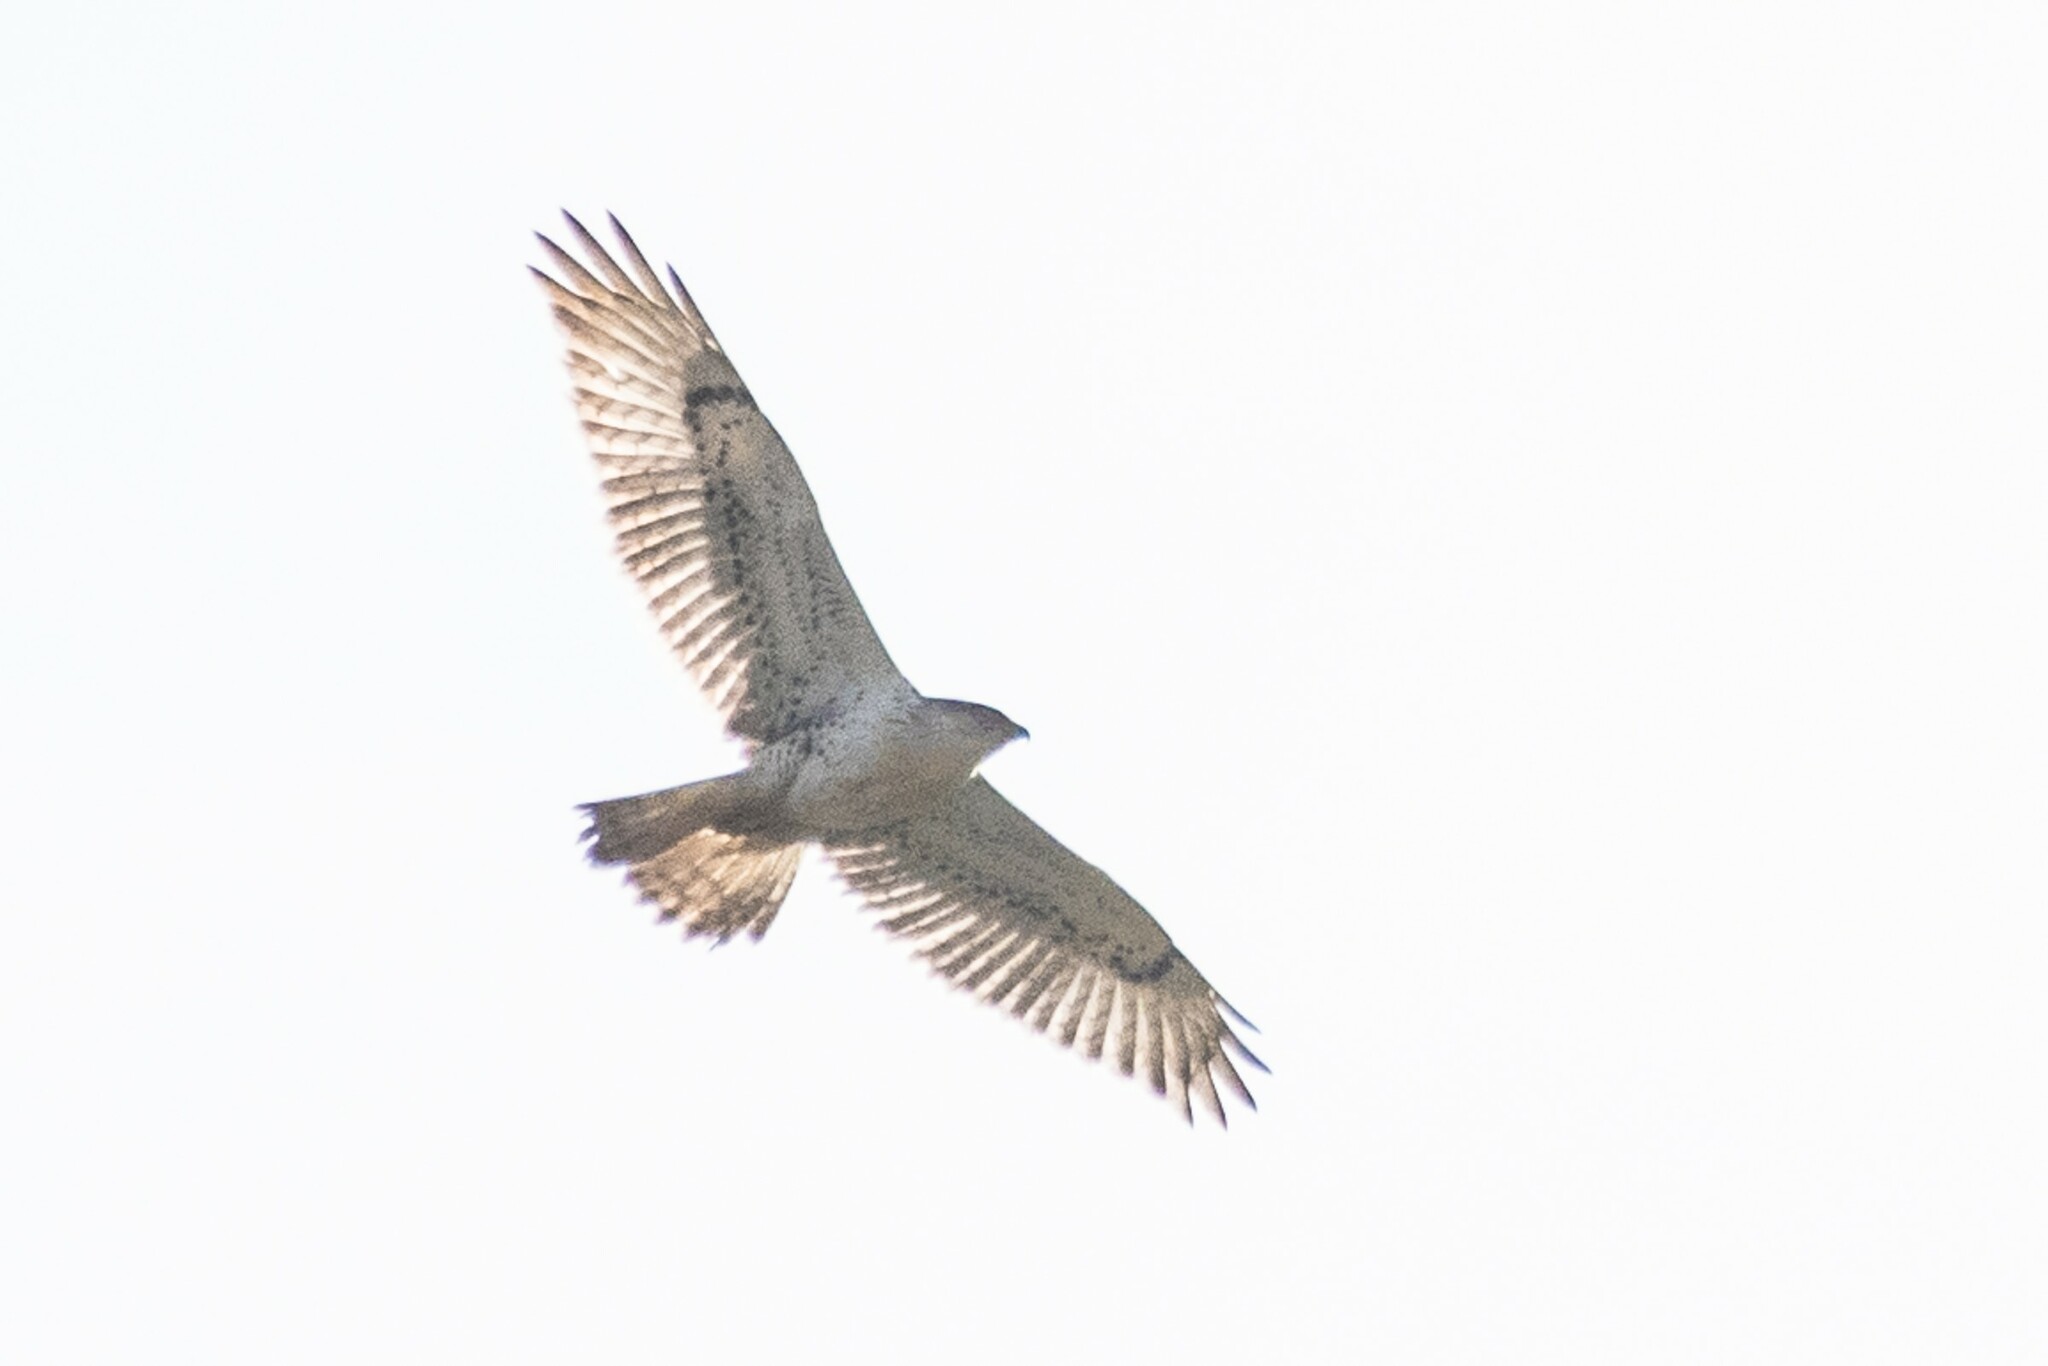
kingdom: Animalia
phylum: Chordata
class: Aves
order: Accipitriformes
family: Accipitridae
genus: Buteo
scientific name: Buteo regalis
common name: Ferruginous hawk
